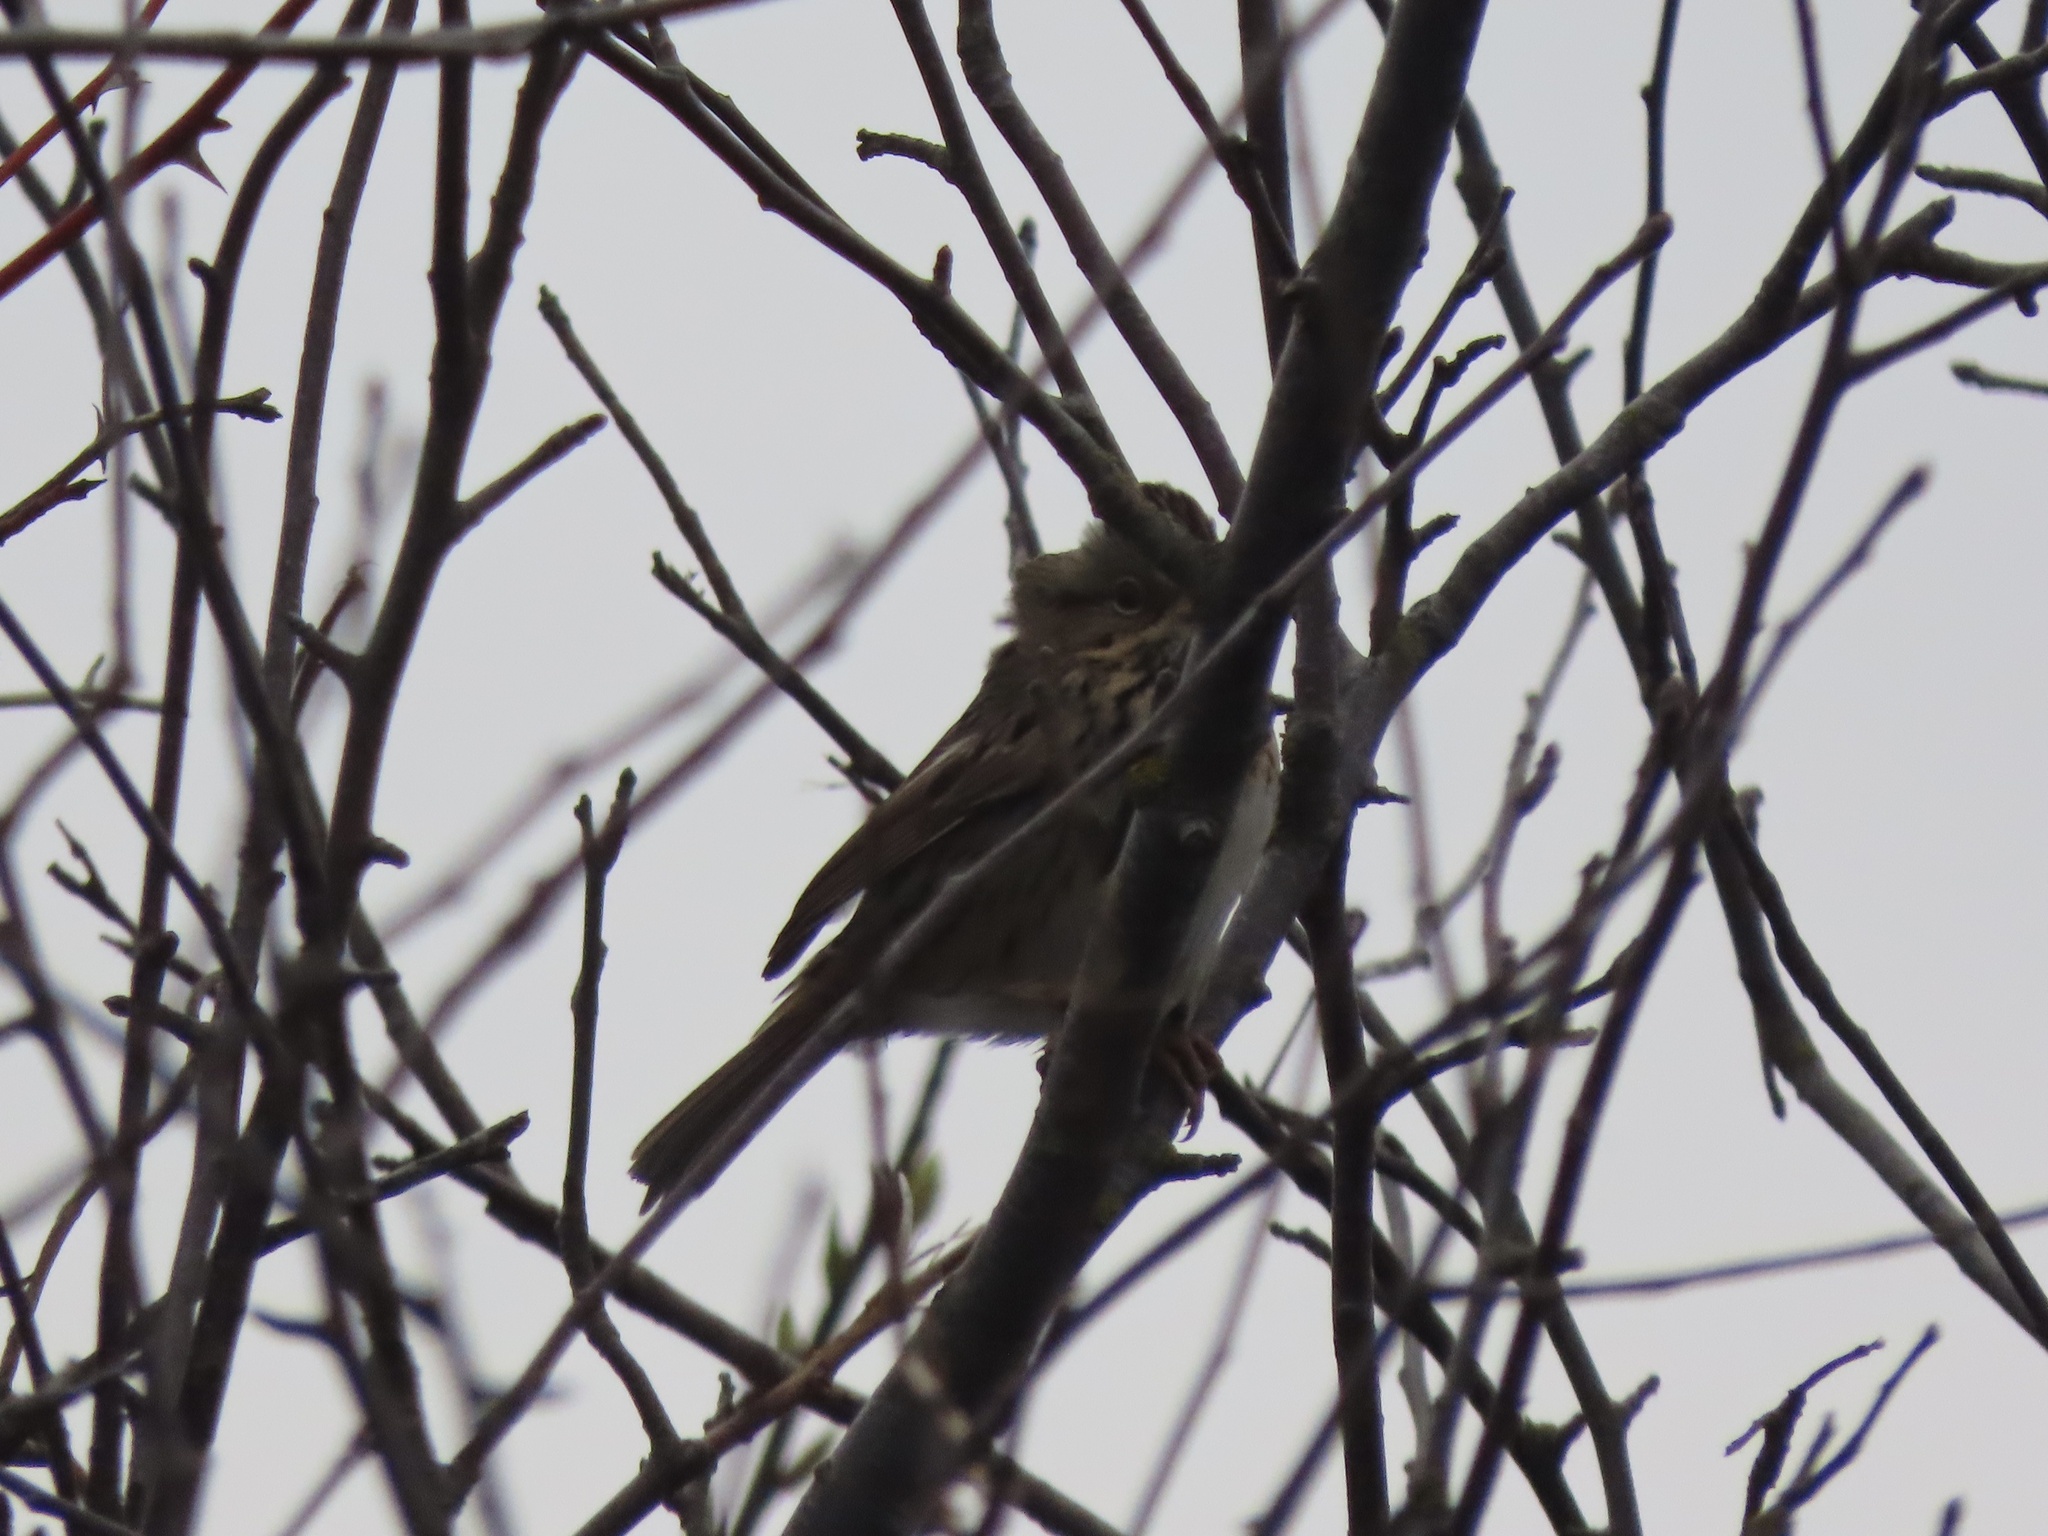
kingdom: Animalia
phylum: Chordata
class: Aves
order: Passeriformes
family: Passerellidae
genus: Melospiza
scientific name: Melospiza lincolnii
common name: Lincoln's sparrow
